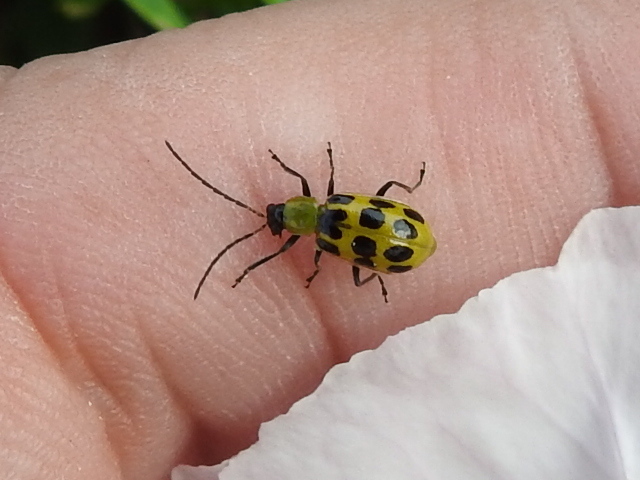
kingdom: Animalia
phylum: Arthropoda
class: Insecta
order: Coleoptera
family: Chrysomelidae
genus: Diabrotica
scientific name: Diabrotica undecimpunctata
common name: Spotted cucumber beetle
